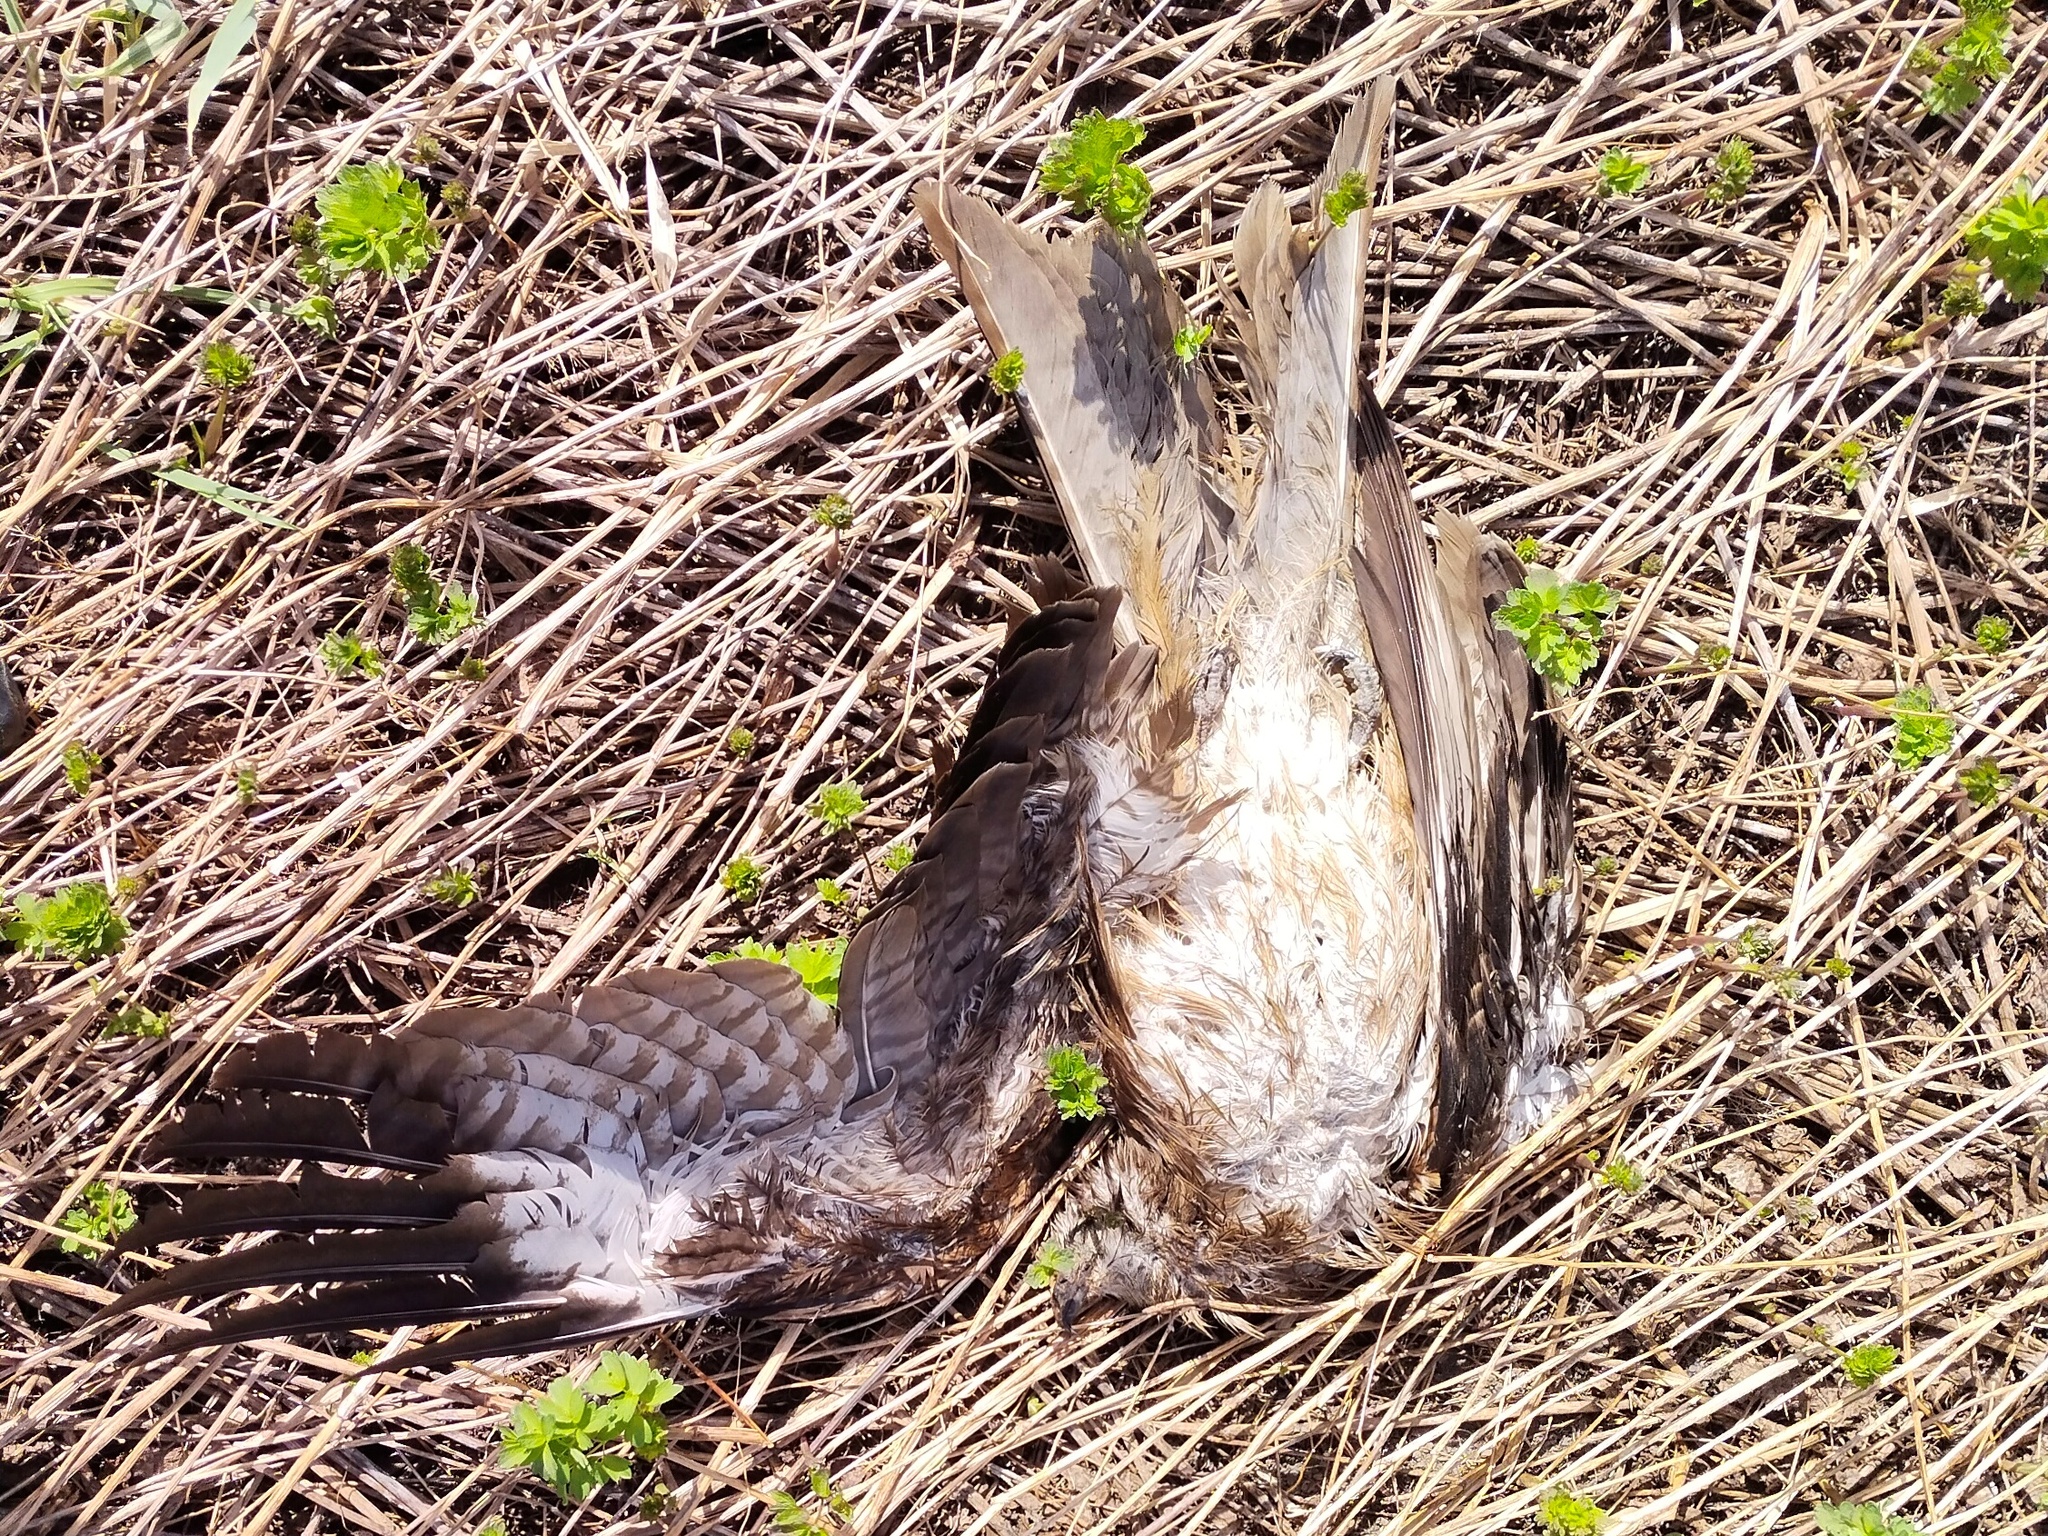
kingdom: Animalia
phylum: Chordata
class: Aves
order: Accipitriformes
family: Accipitridae
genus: Milvus
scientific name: Milvus migrans
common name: Black kite
